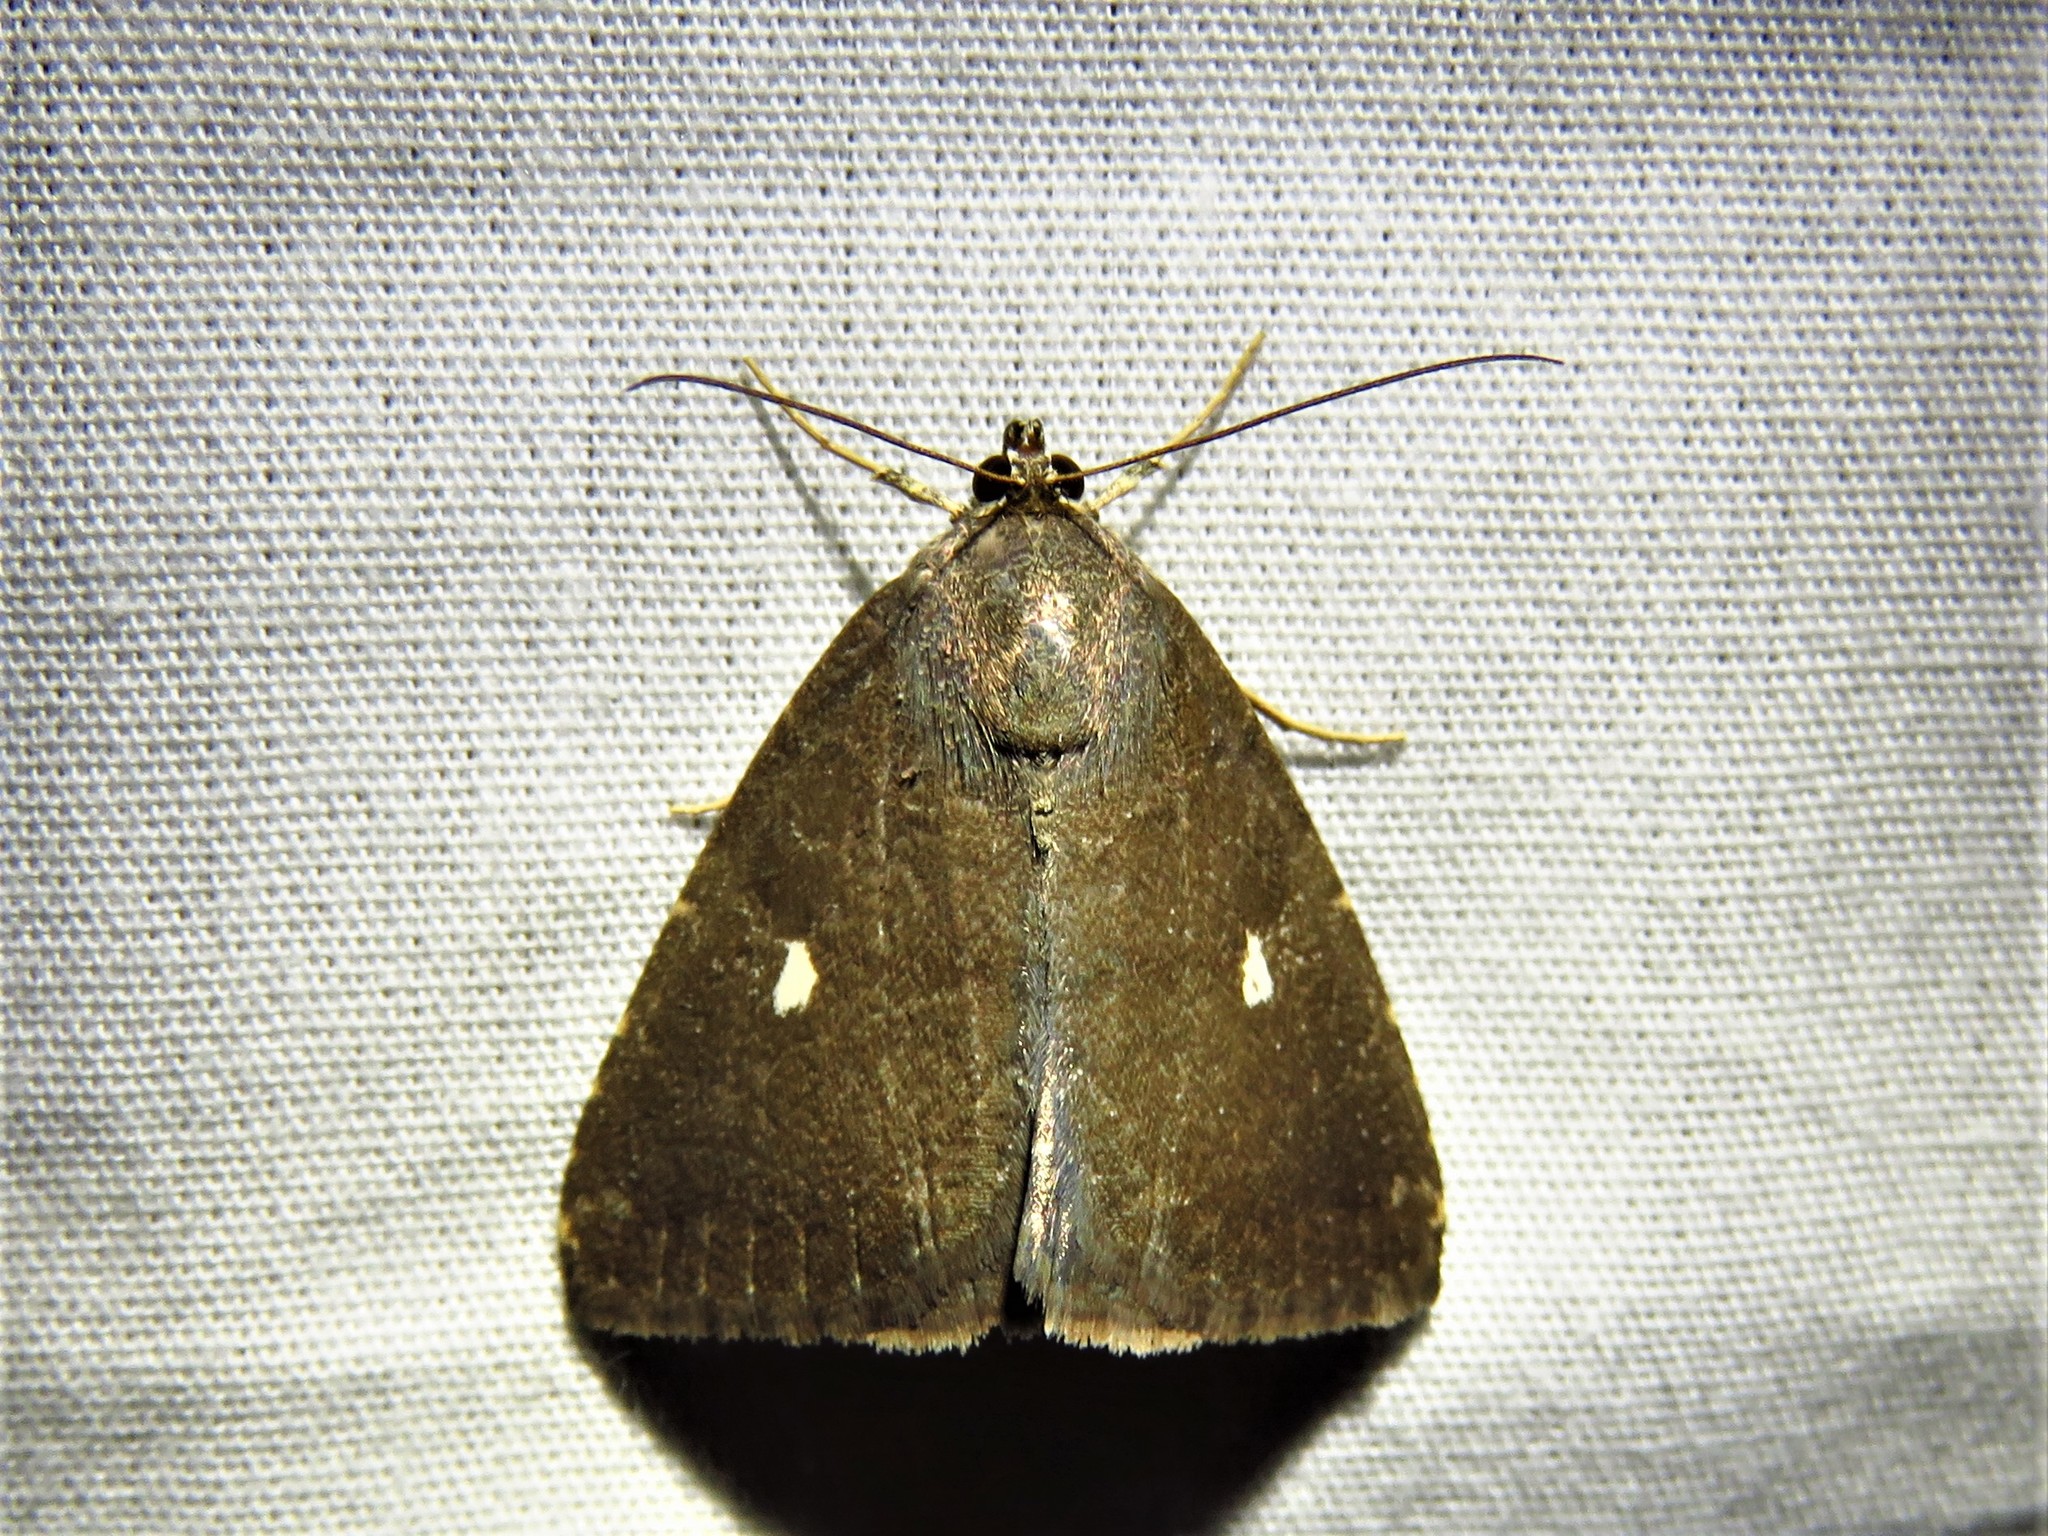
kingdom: Animalia
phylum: Arthropoda
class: Insecta
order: Lepidoptera
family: Noctuidae
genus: Amyna
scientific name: Amyna axis
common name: Cutworm
